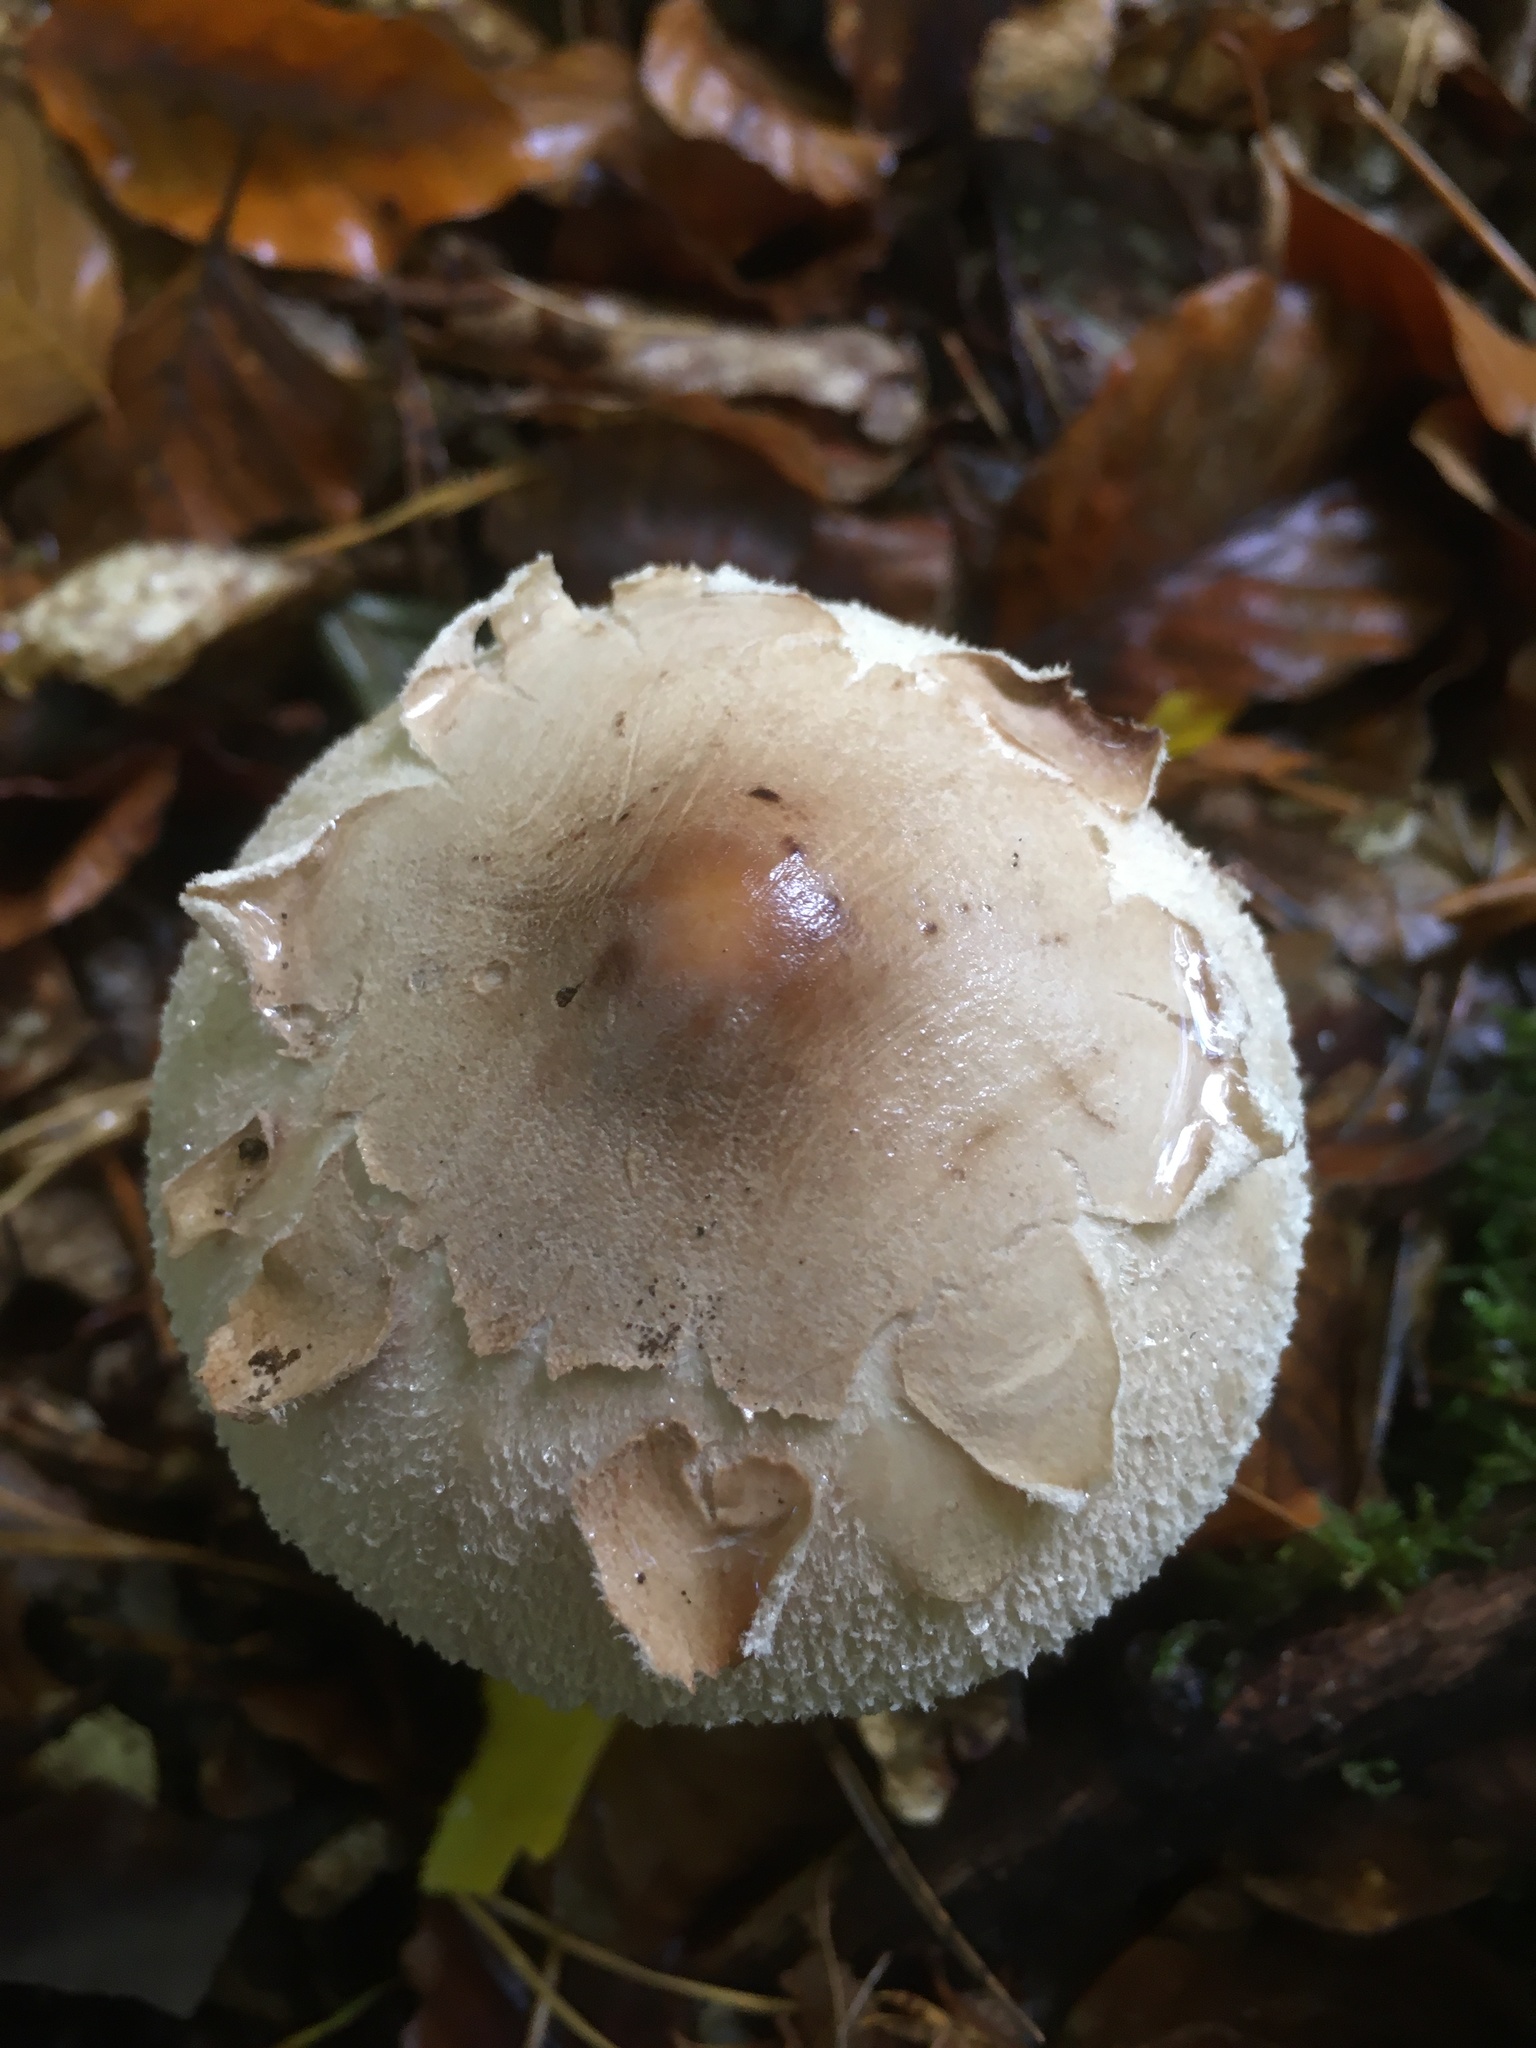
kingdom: Fungi
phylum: Basidiomycota
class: Agaricomycetes
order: Agaricales
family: Agaricaceae
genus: Macrolepiota
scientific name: Macrolepiota fuliginosa
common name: Sooty parasol
